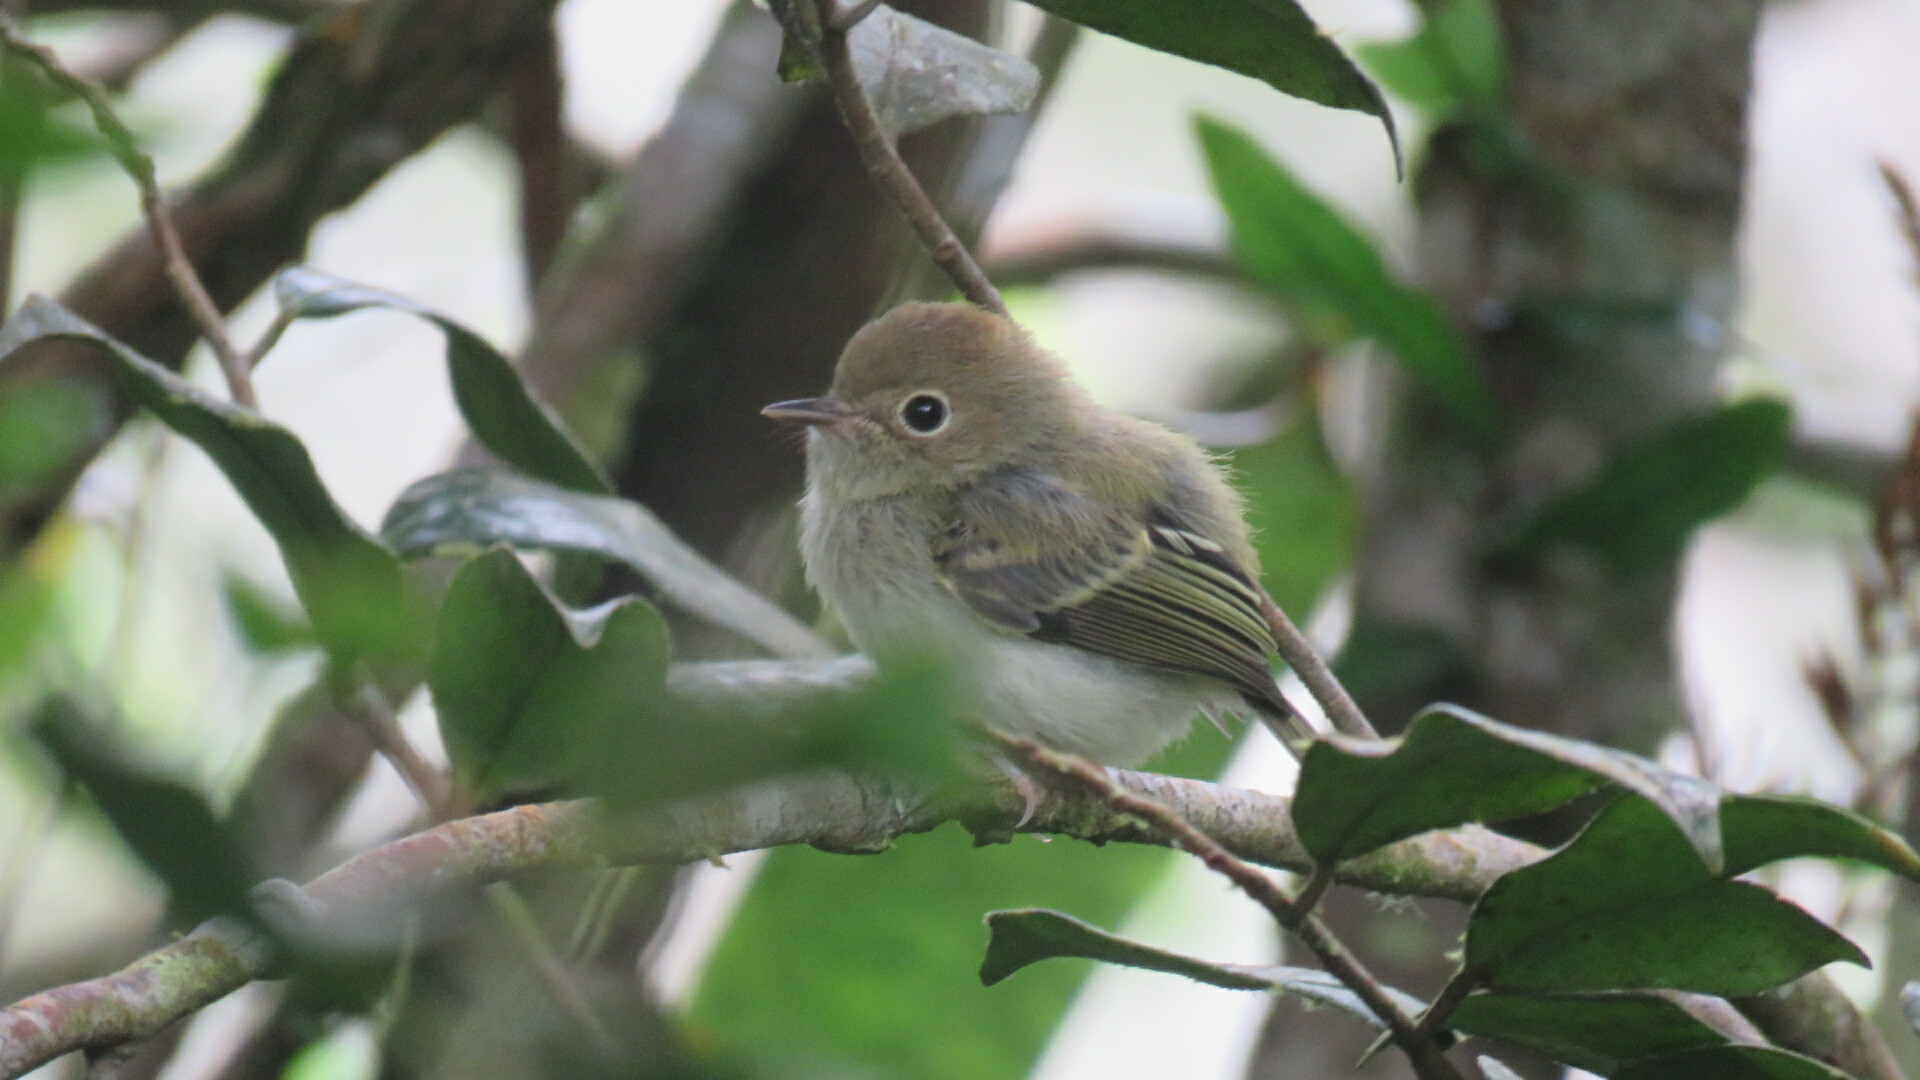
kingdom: Animalia
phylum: Chordata
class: Aves
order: Passeriformes
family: Tyrannidae
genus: Lophotriccus
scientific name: Lophotriccus pileatus
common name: Scale-crested pygmy-tyrant
